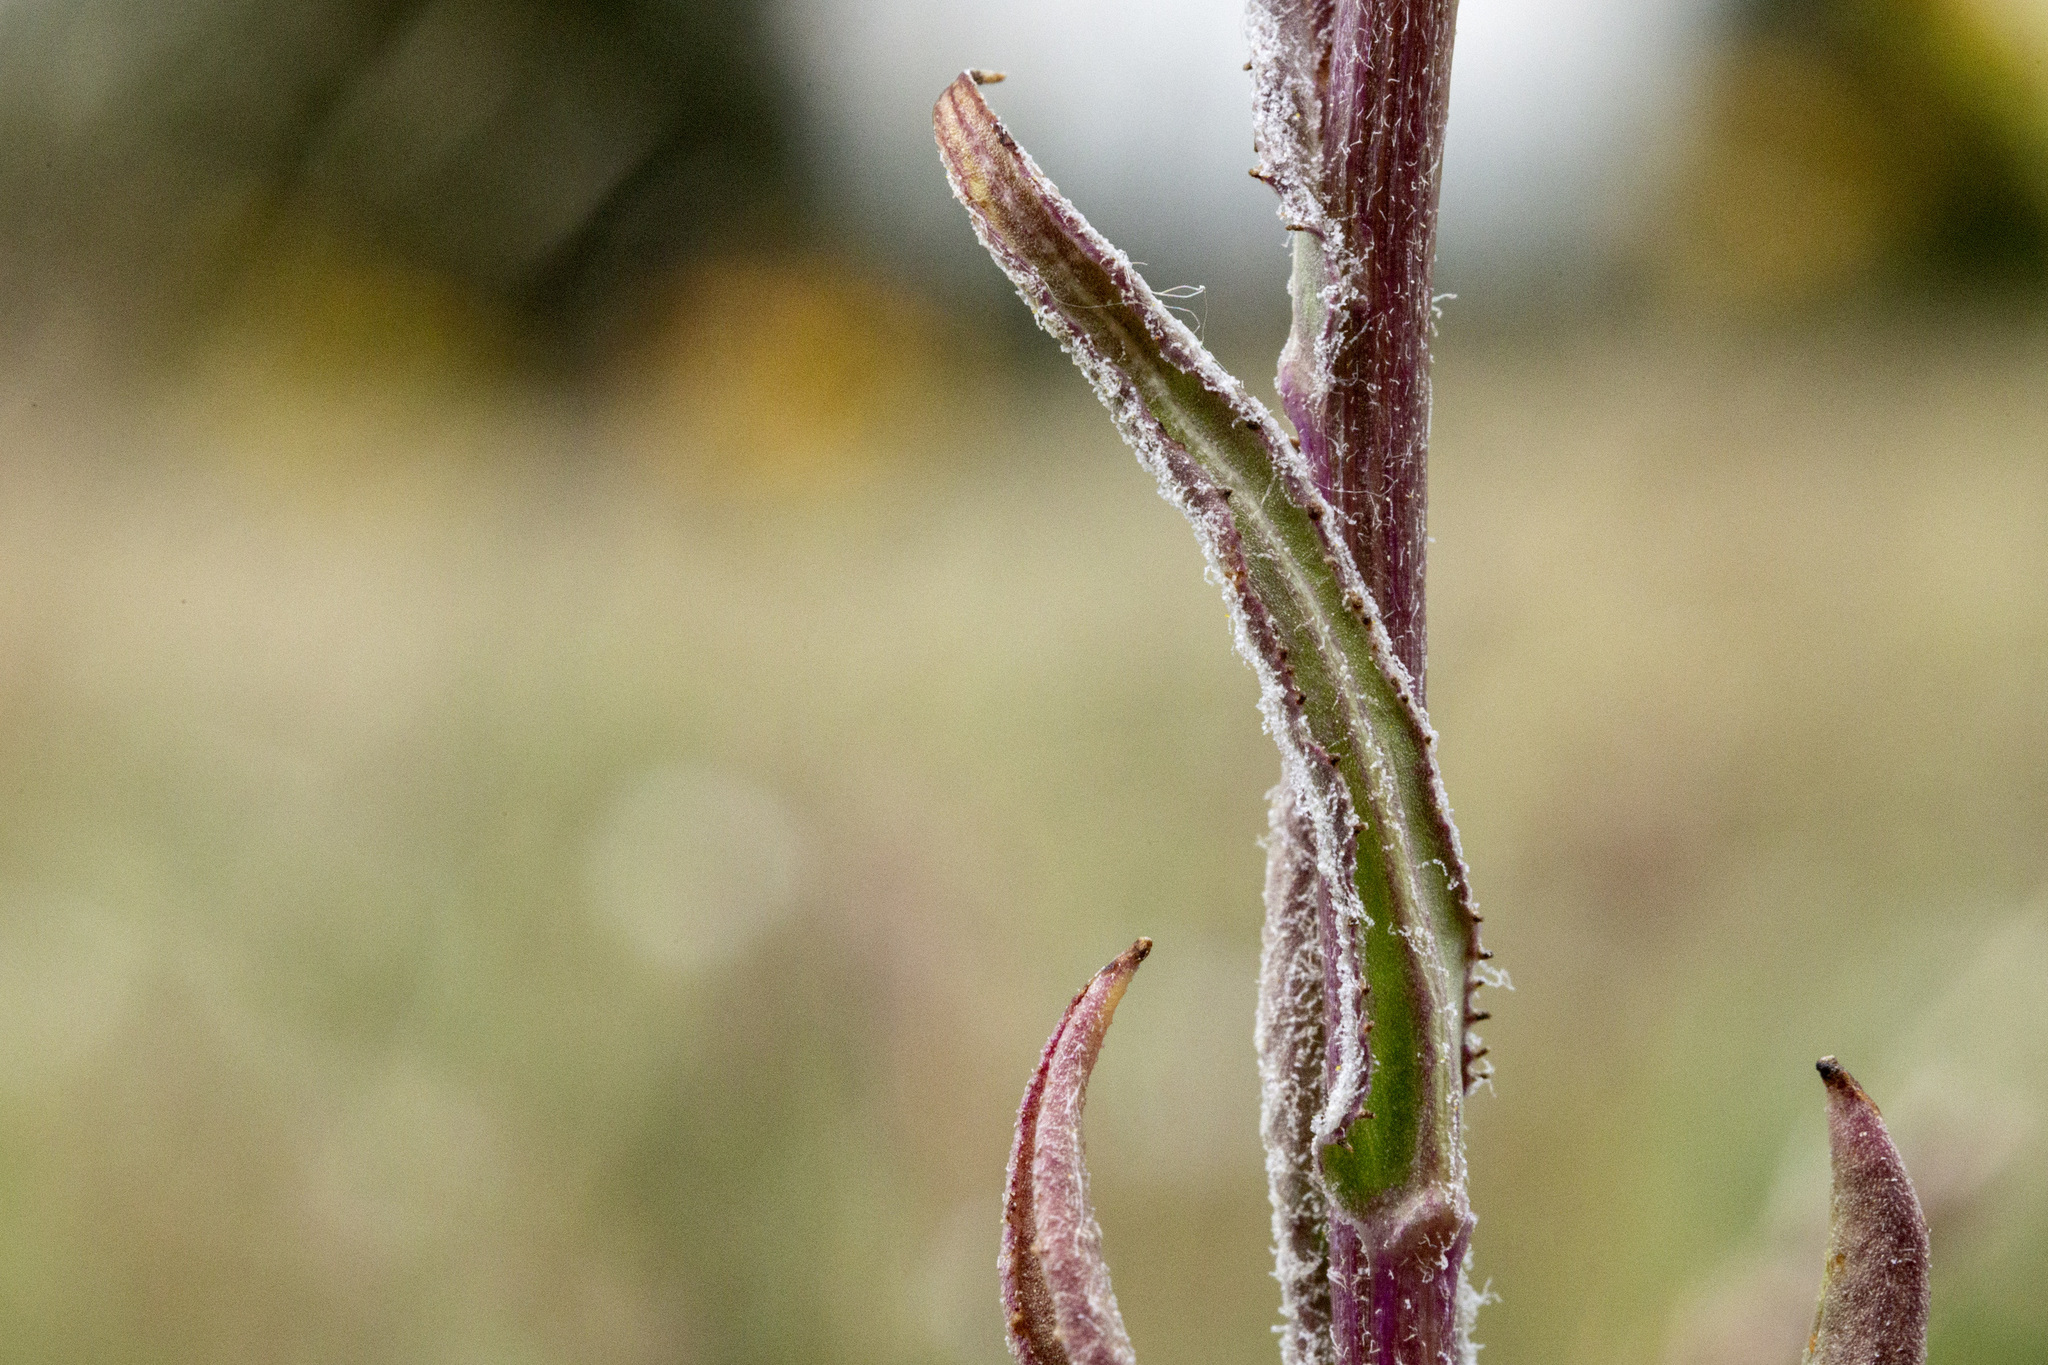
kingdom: Plantae
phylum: Tracheophyta
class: Magnoliopsida
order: Asterales
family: Asteraceae
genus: Senecio
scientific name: Senecio integerrimus
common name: Gaugeplant
